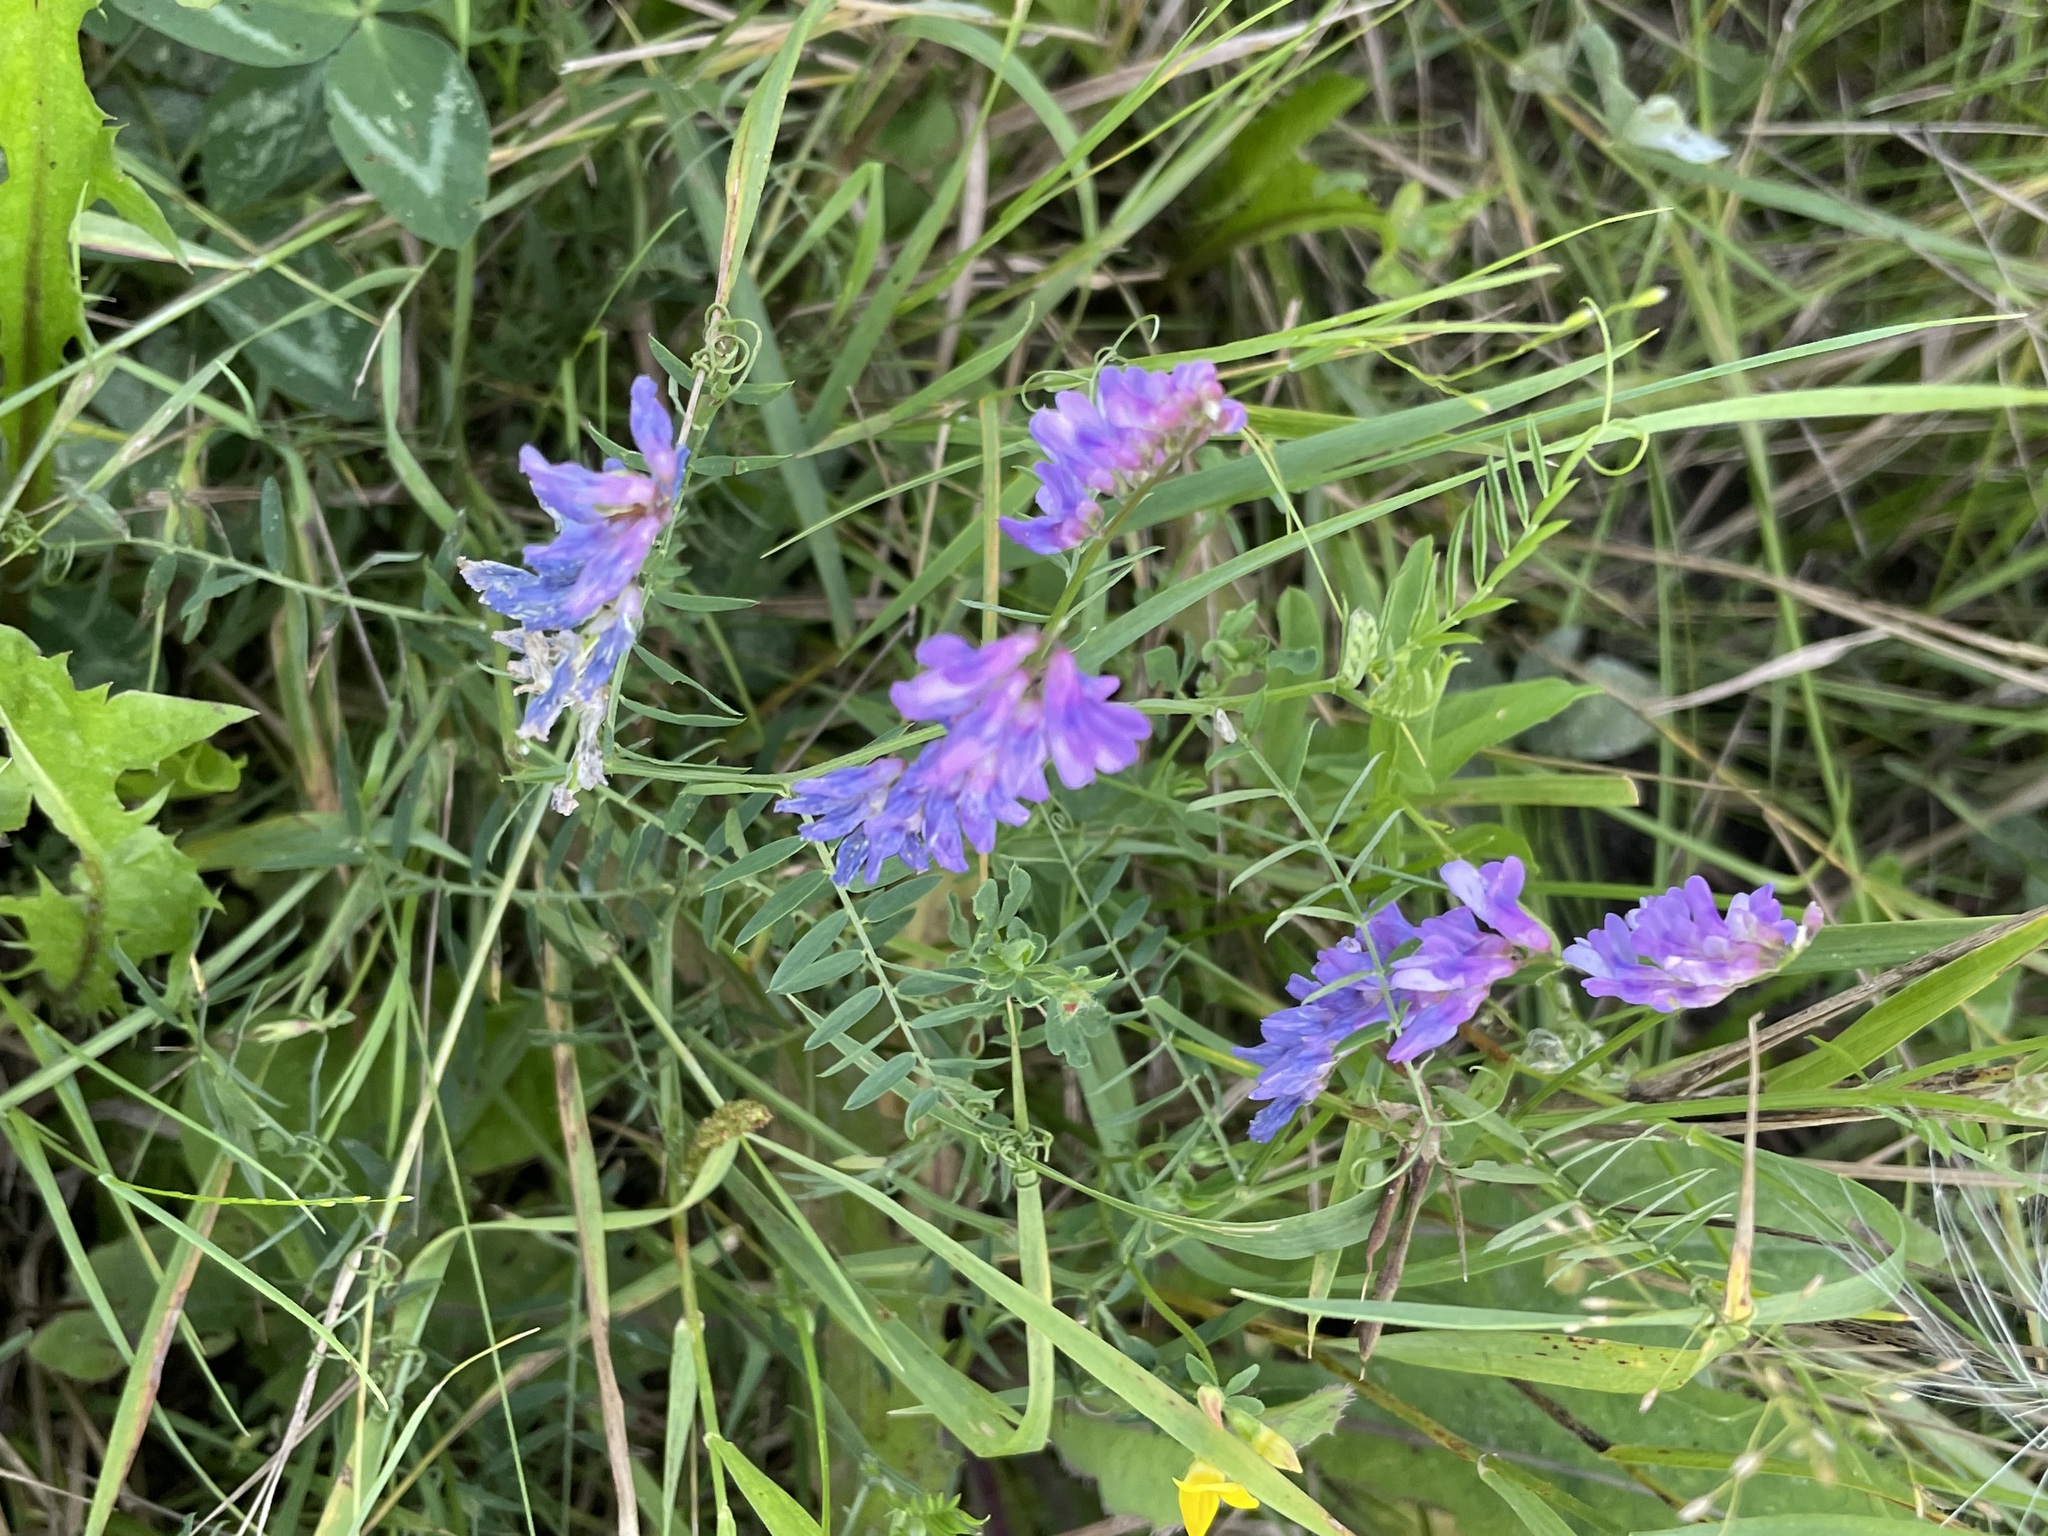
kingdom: Plantae
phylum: Tracheophyta
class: Magnoliopsida
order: Fabales
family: Fabaceae
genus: Vicia
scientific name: Vicia cracca
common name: Bird vetch
